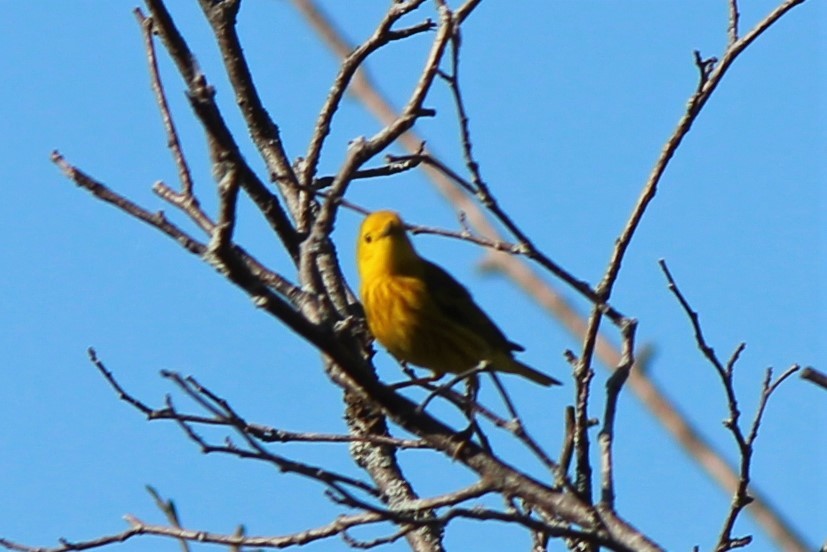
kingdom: Animalia
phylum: Chordata
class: Aves
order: Passeriformes
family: Parulidae
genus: Setophaga
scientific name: Setophaga petechia
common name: Yellow warbler
